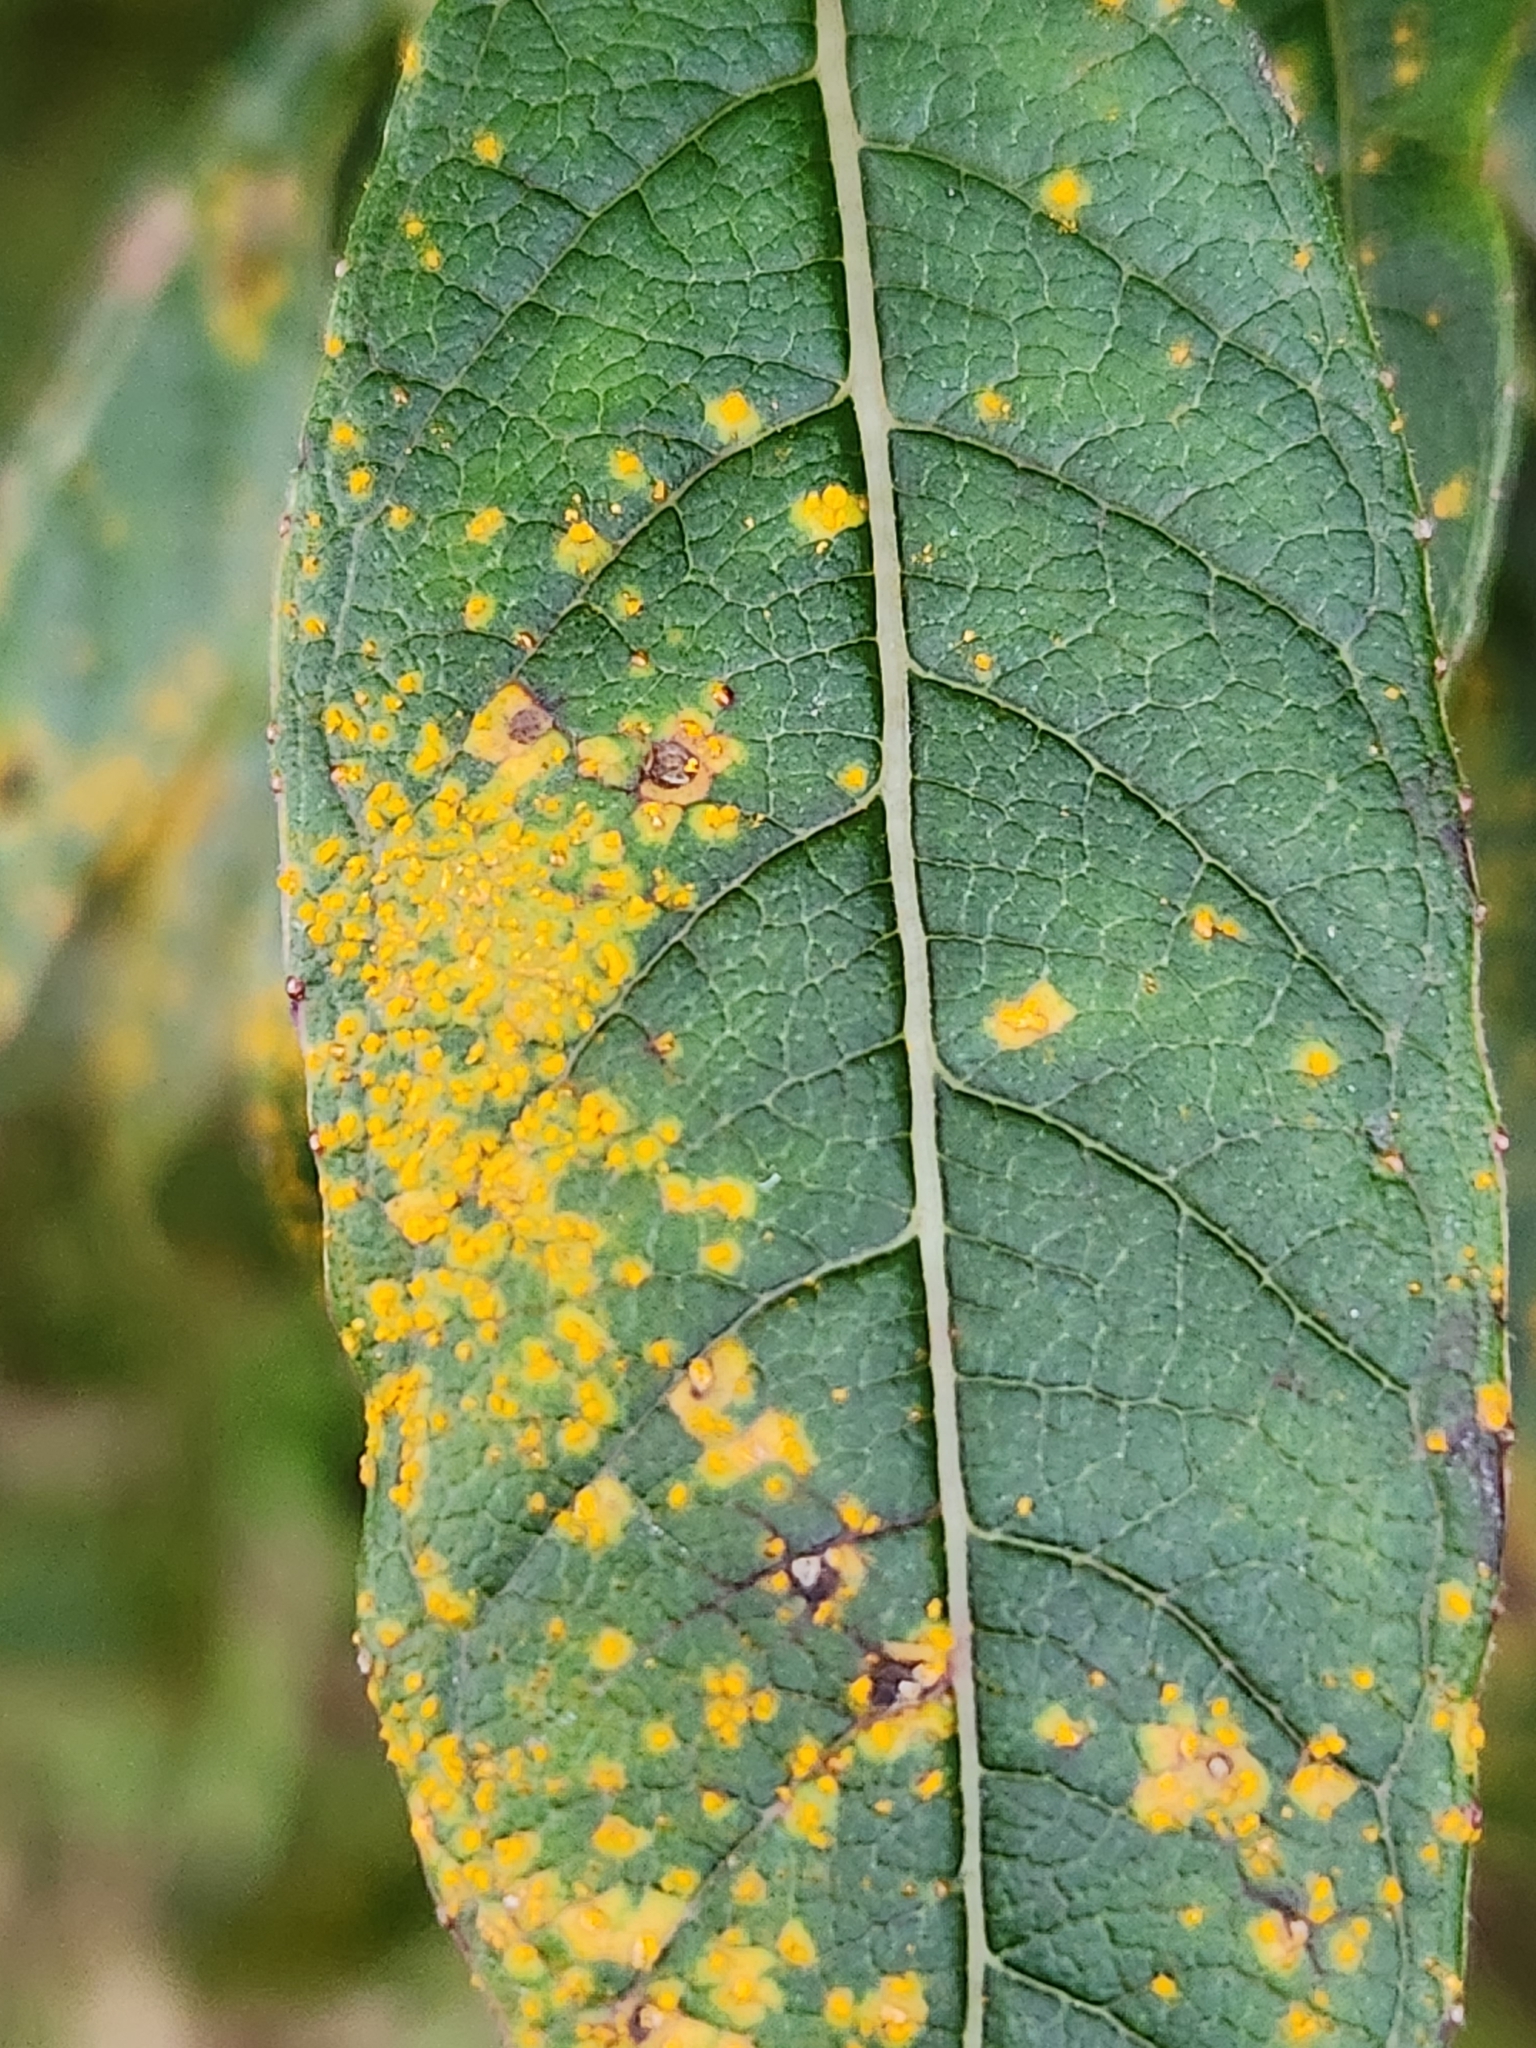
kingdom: Fungi
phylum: Basidiomycota
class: Pucciniomycetes
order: Pucciniales
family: Mikronegeriaceae
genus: Mikronegeria
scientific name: Mikronegeria fuchsiae
